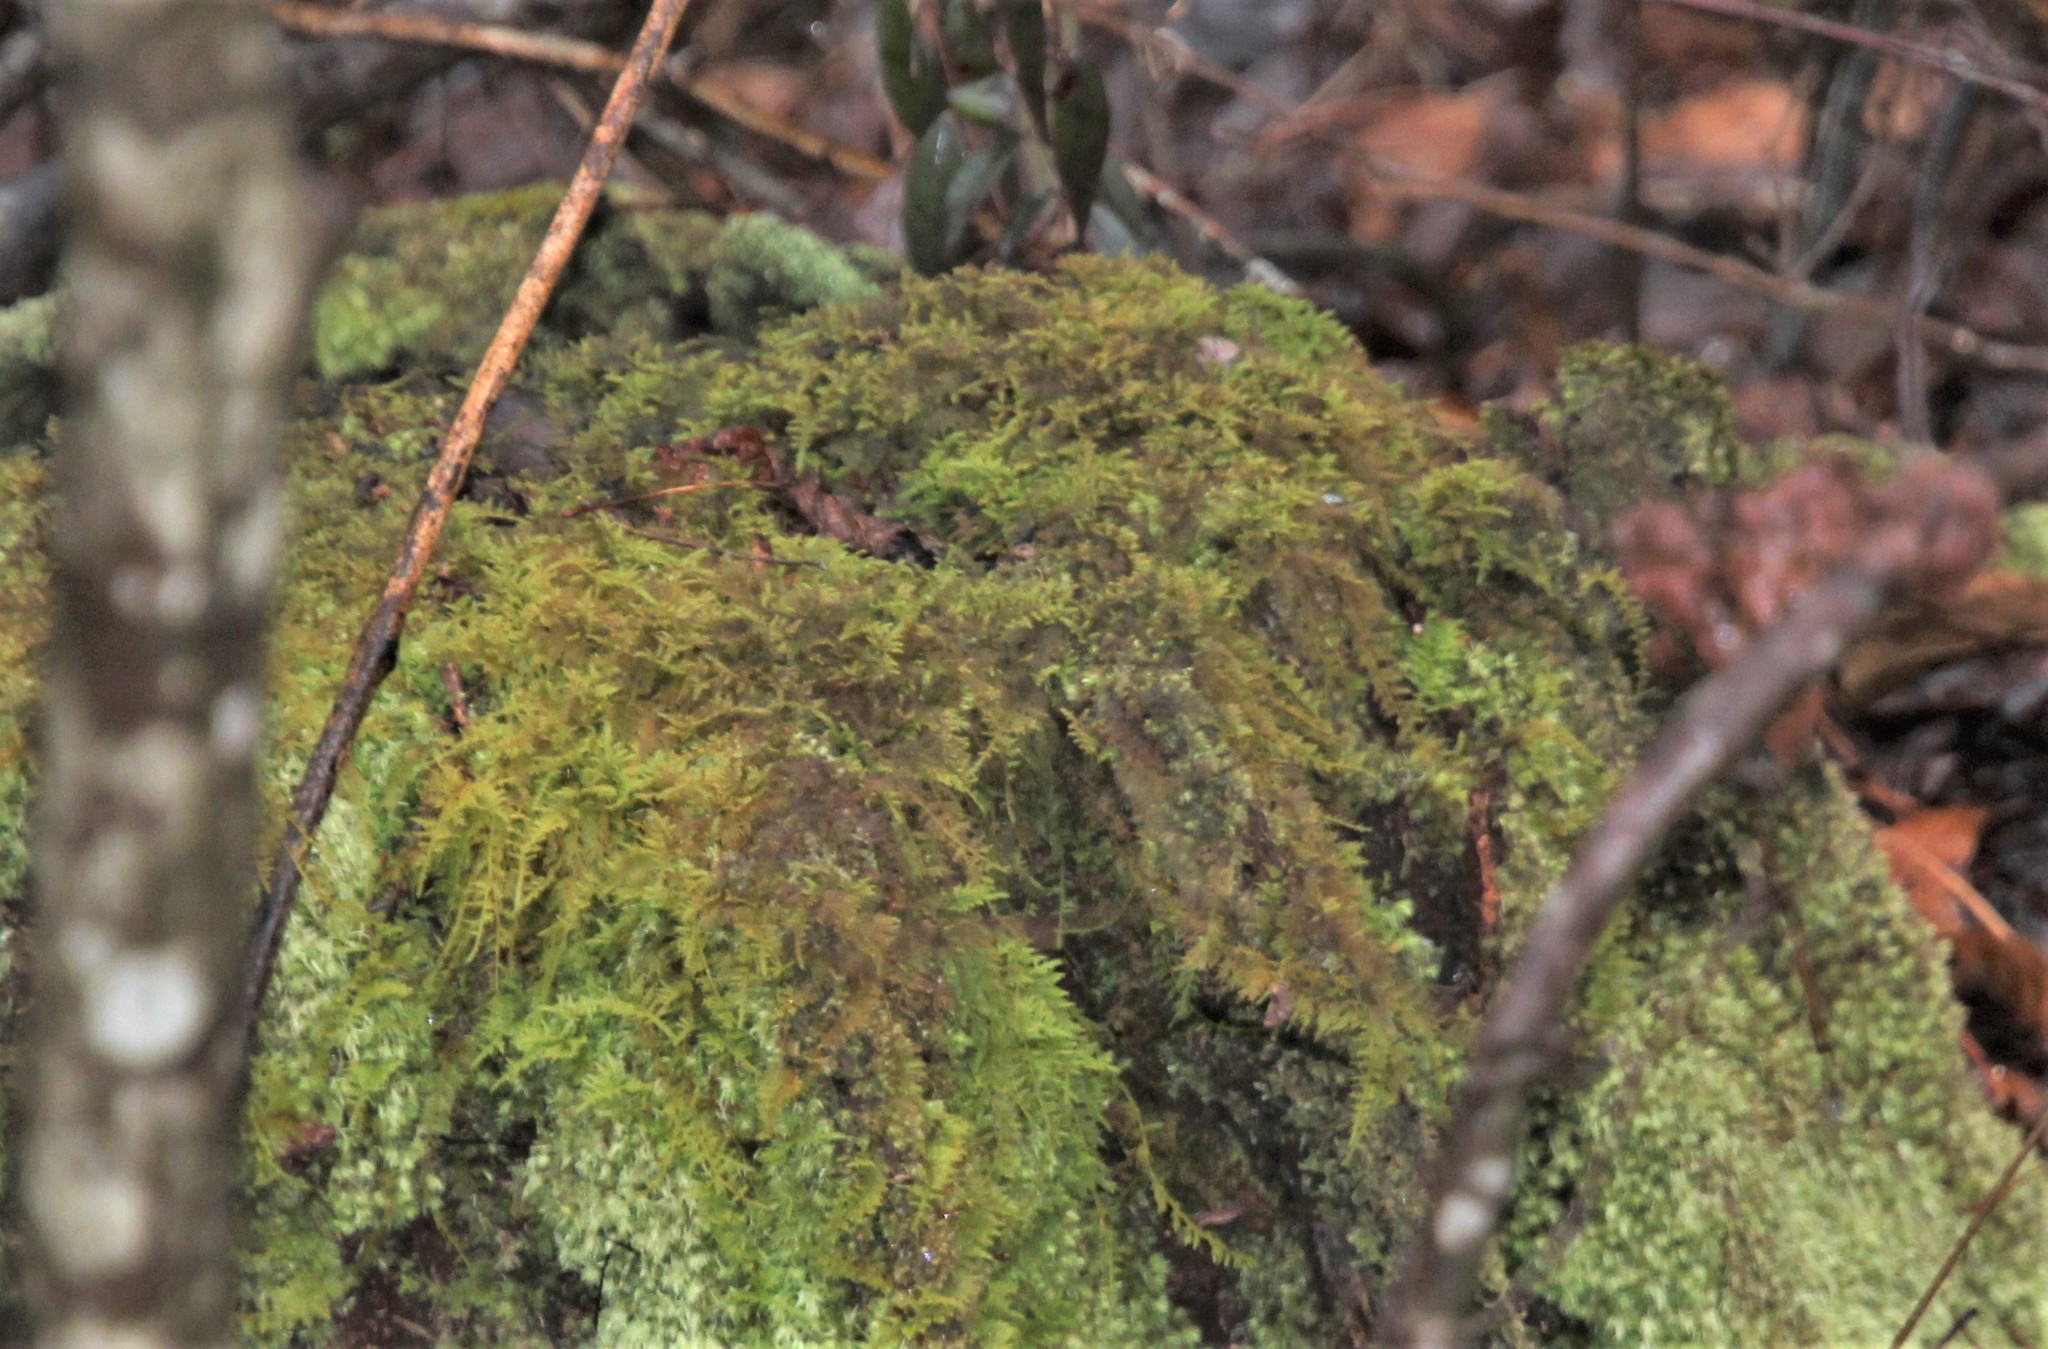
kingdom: Plantae
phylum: Bryophyta
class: Bryopsida
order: Hypnales
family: Thuidiaceae
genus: Thuidium
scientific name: Thuidium delicatulum
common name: Delicate fern moss
